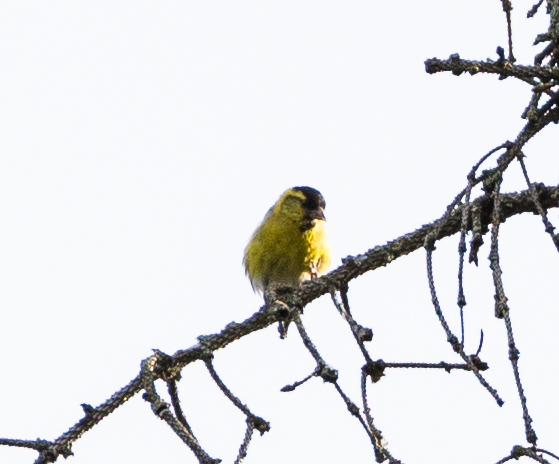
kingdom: Animalia
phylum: Chordata
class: Aves
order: Passeriformes
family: Fringillidae
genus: Spinus
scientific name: Spinus spinus
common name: Eurasian siskin
